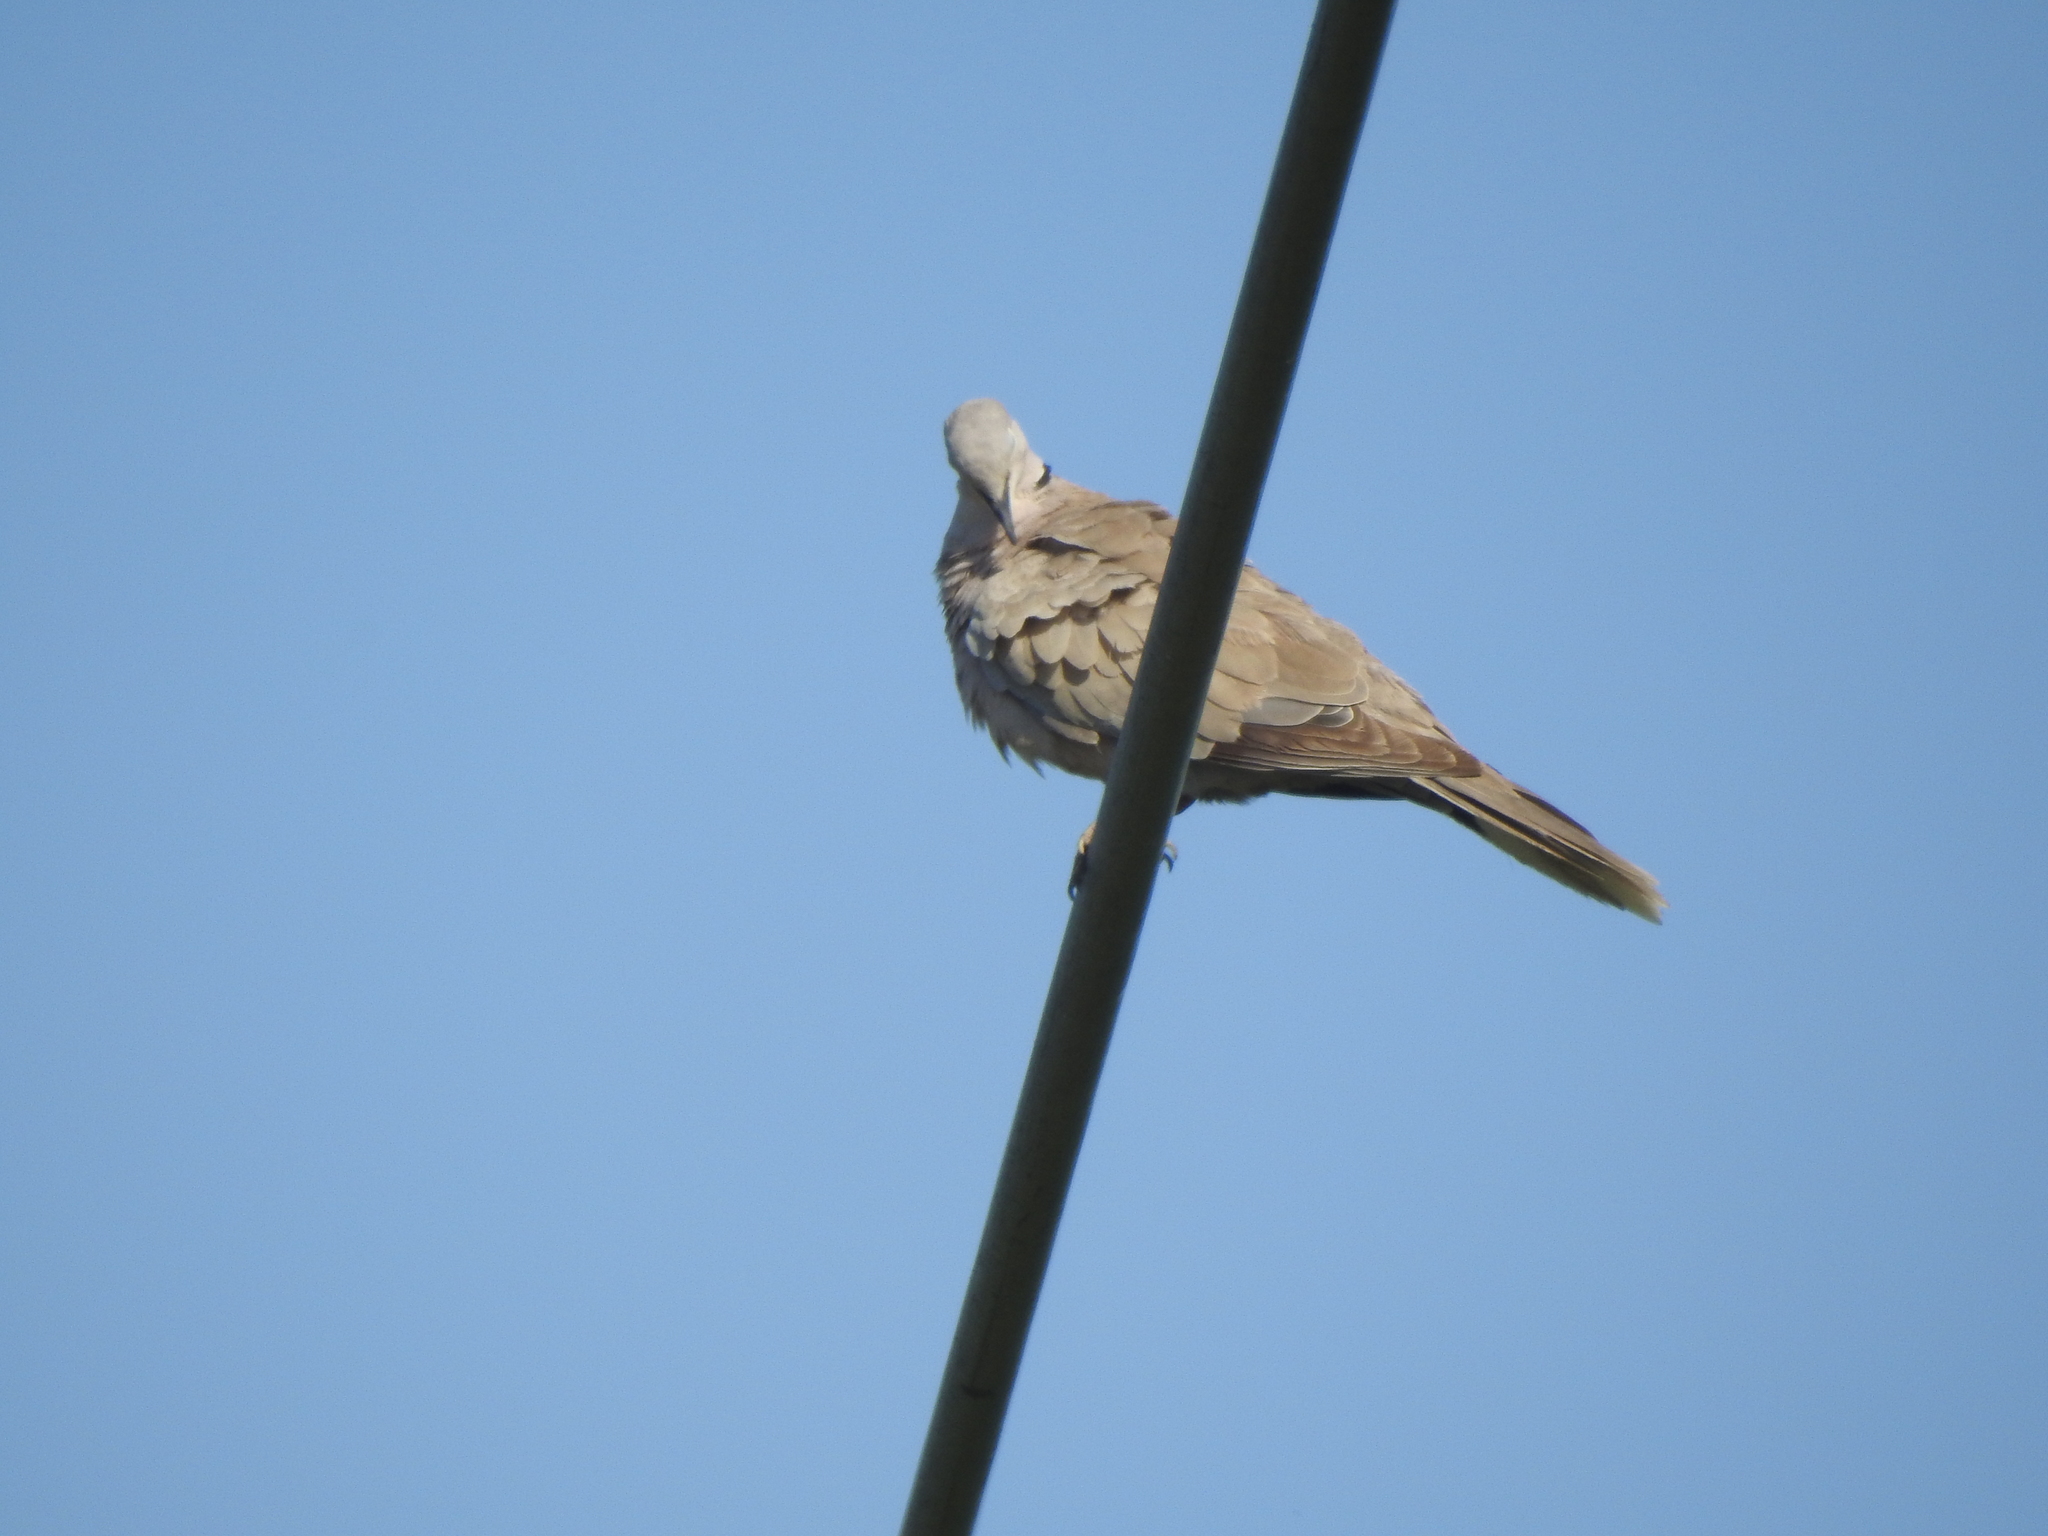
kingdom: Animalia
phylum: Chordata
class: Aves
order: Columbiformes
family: Columbidae
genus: Streptopelia
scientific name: Streptopelia decaocto
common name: Eurasian collared dove
